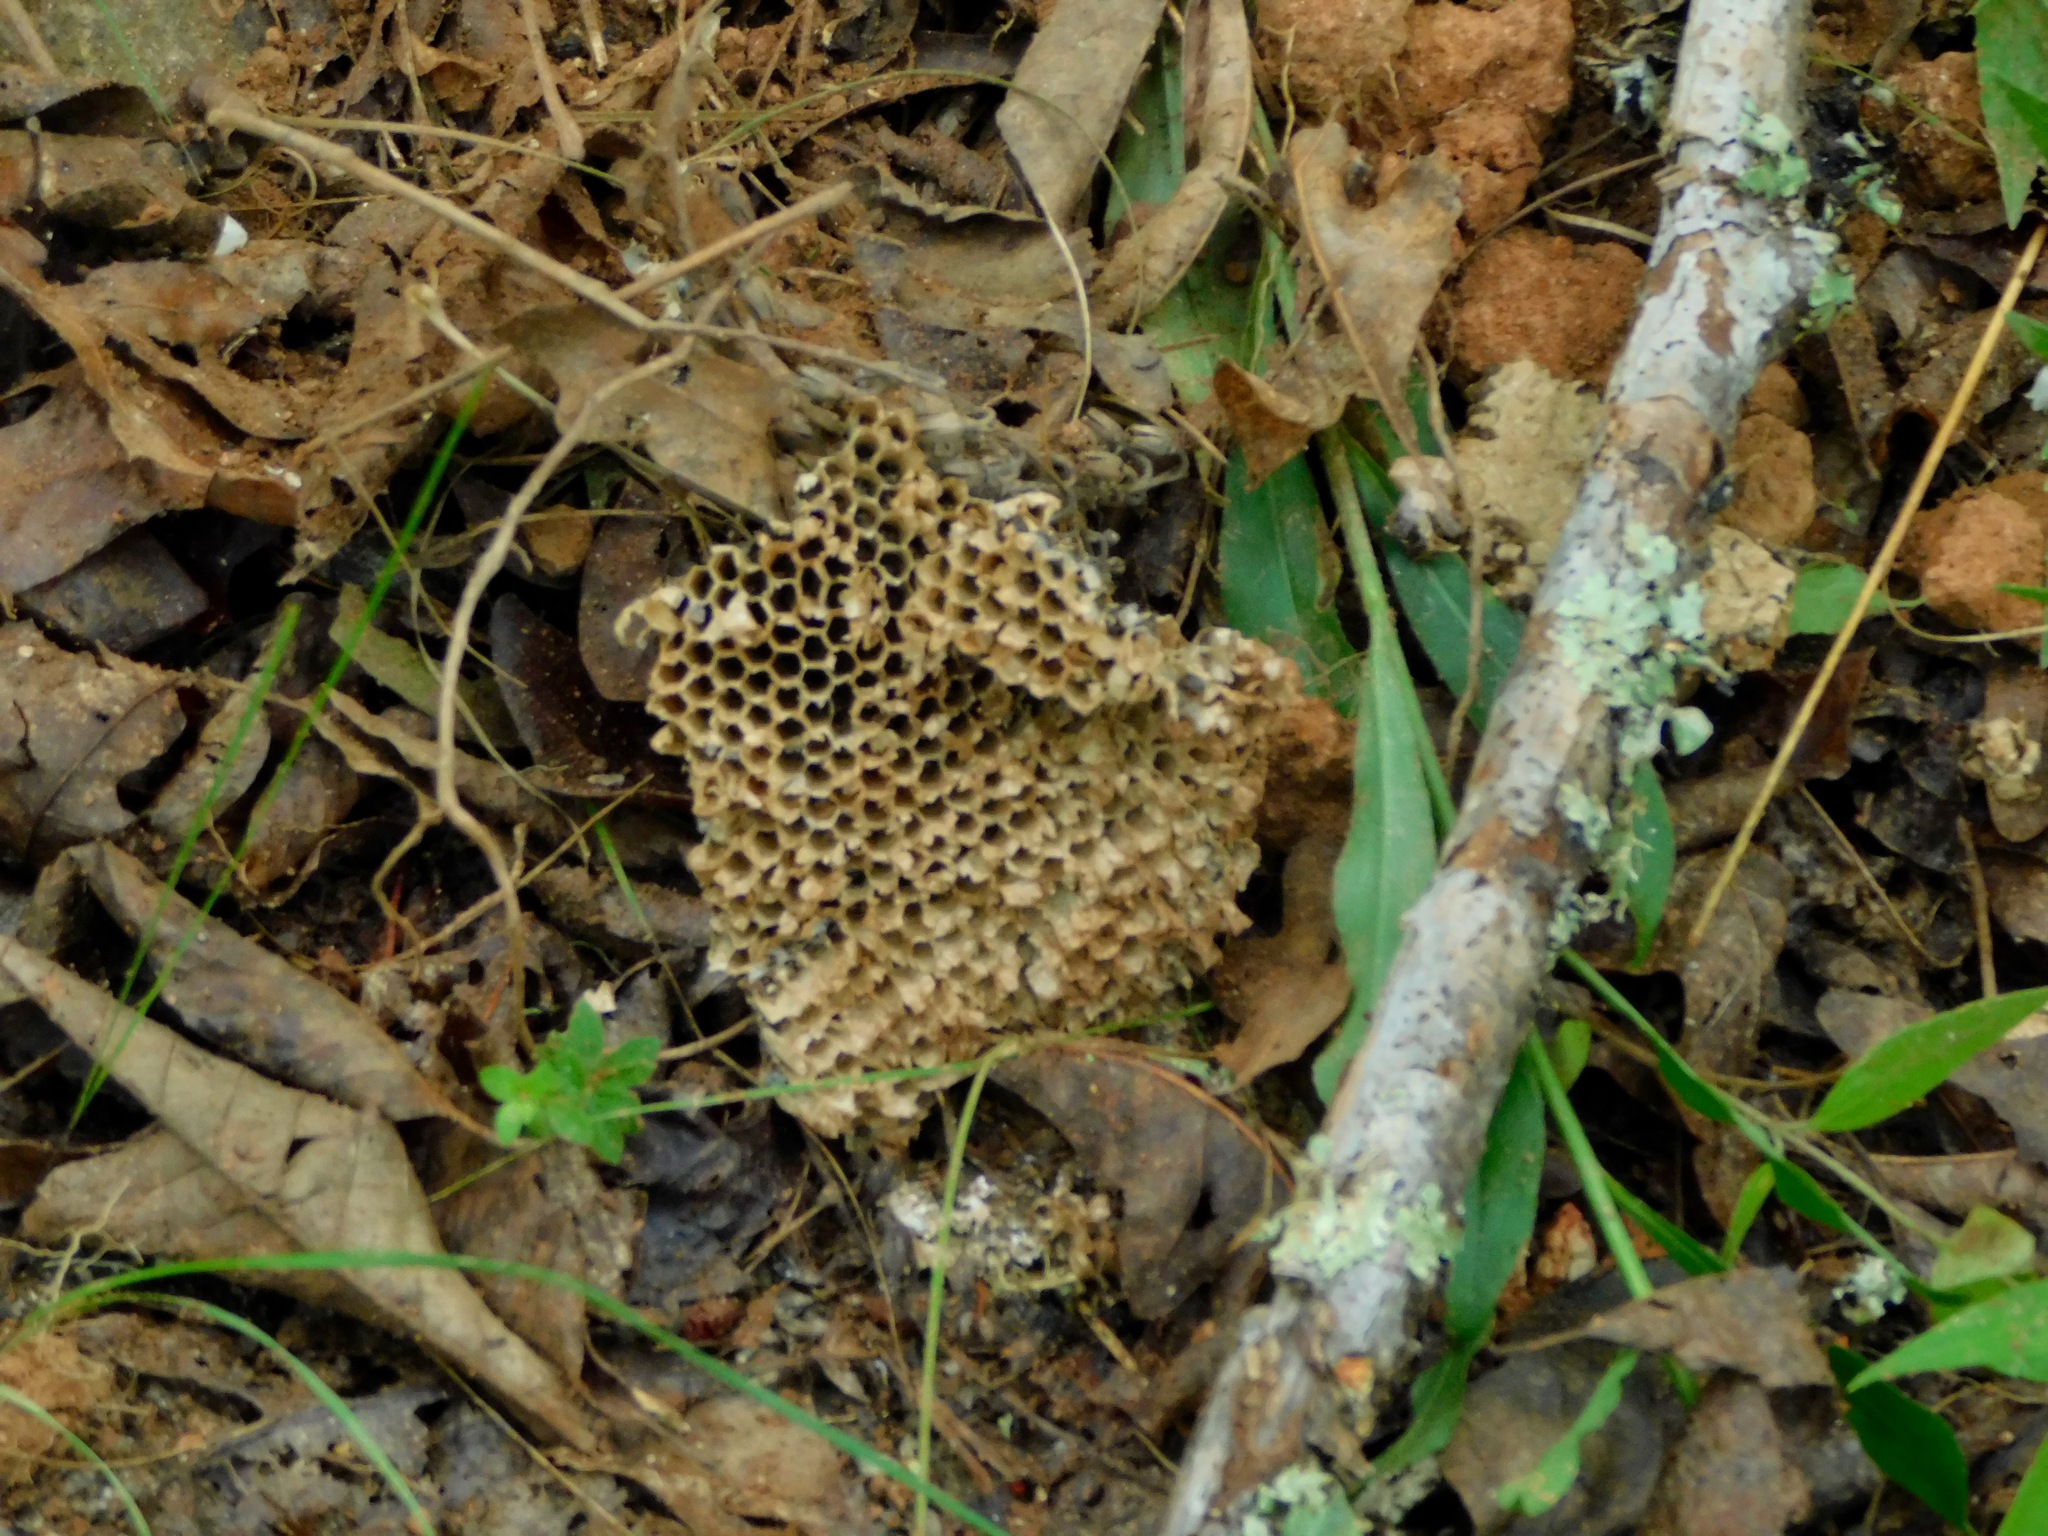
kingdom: Animalia
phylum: Arthropoda
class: Insecta
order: Hymenoptera
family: Vespidae
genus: Vespula
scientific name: Vespula maculifrons
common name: Eastern yellowjacket
